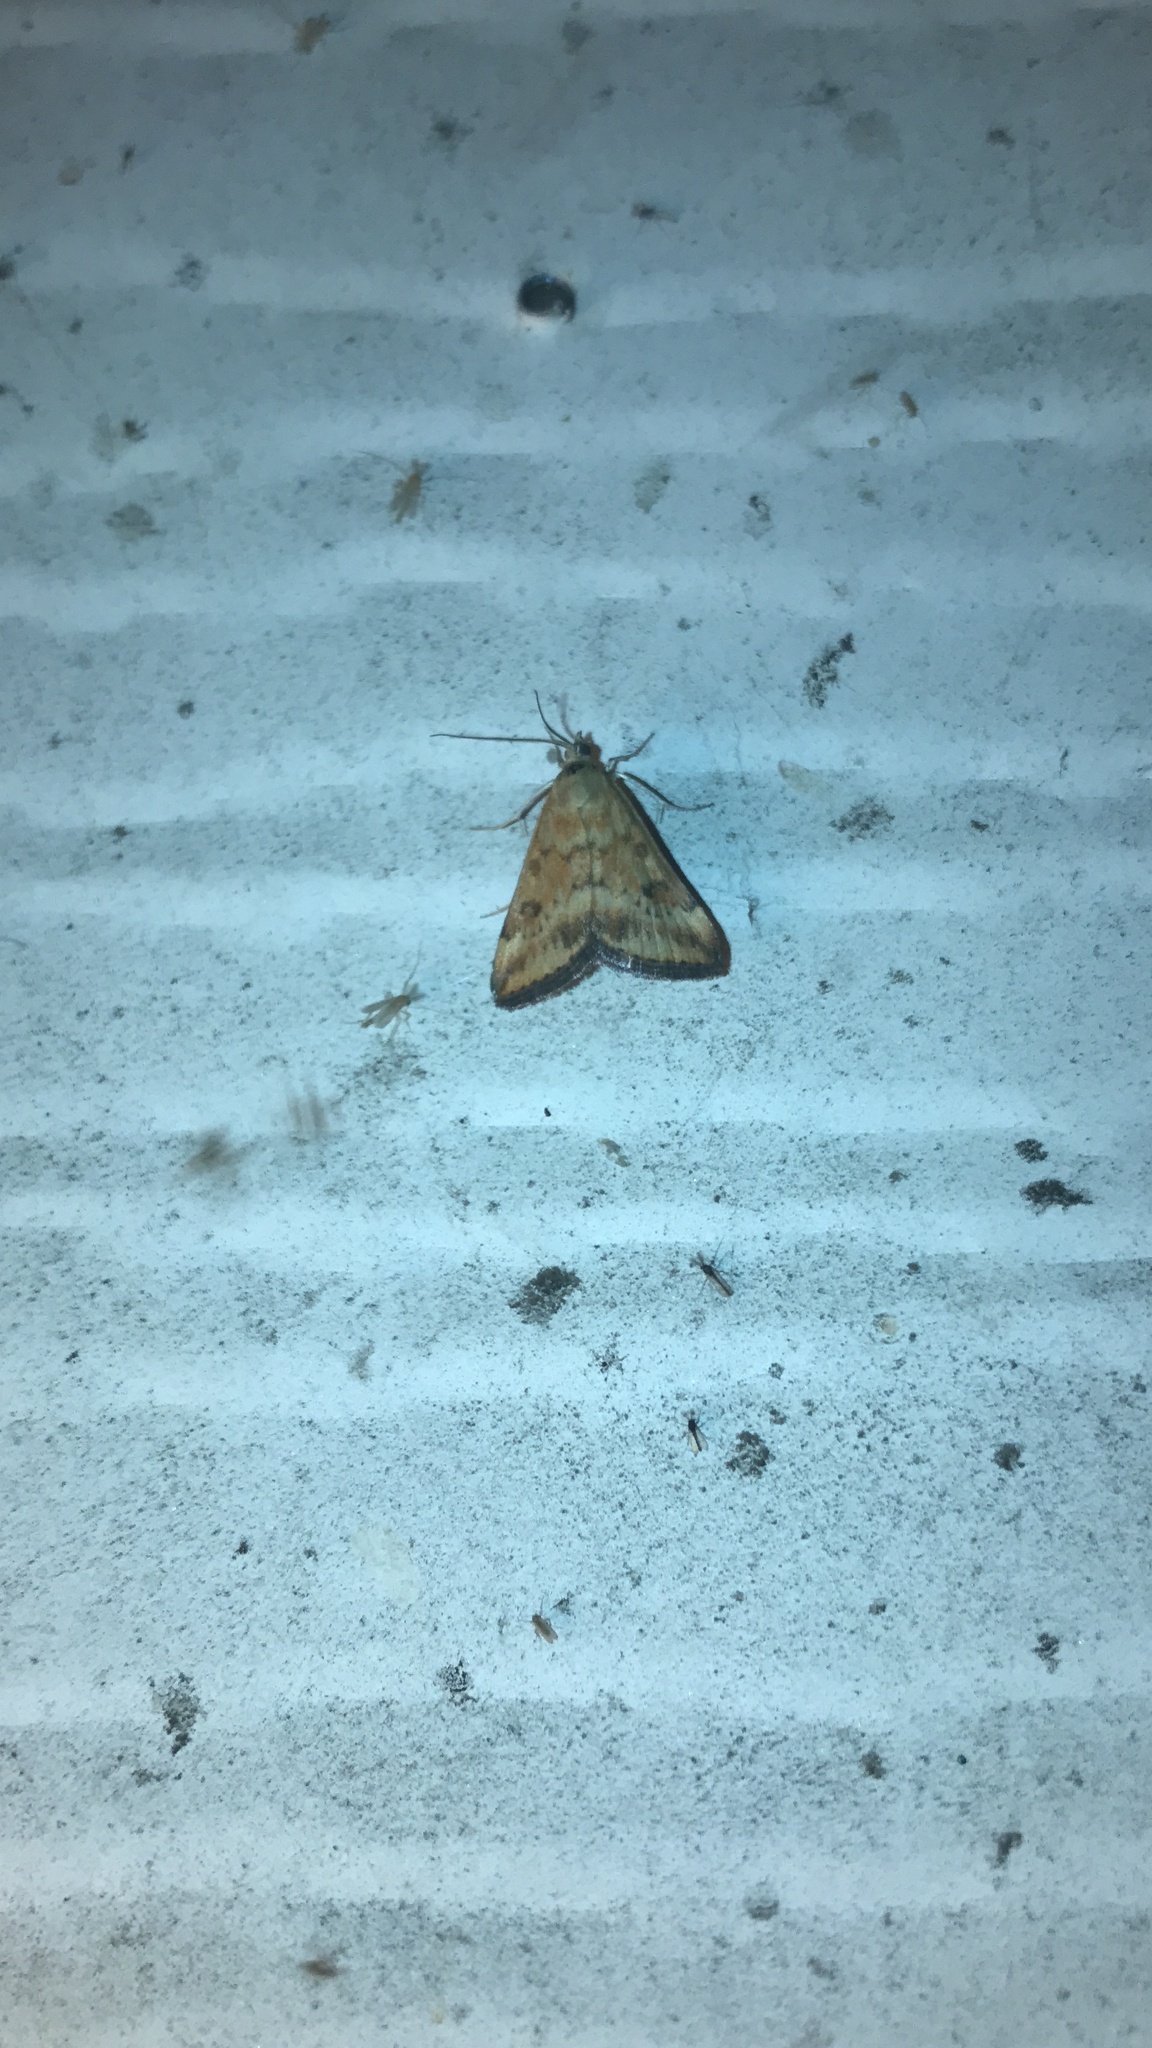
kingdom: Animalia
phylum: Arthropoda
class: Insecta
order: Lepidoptera
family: Crambidae
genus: Pyrausta
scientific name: Pyrausta subsequalis
